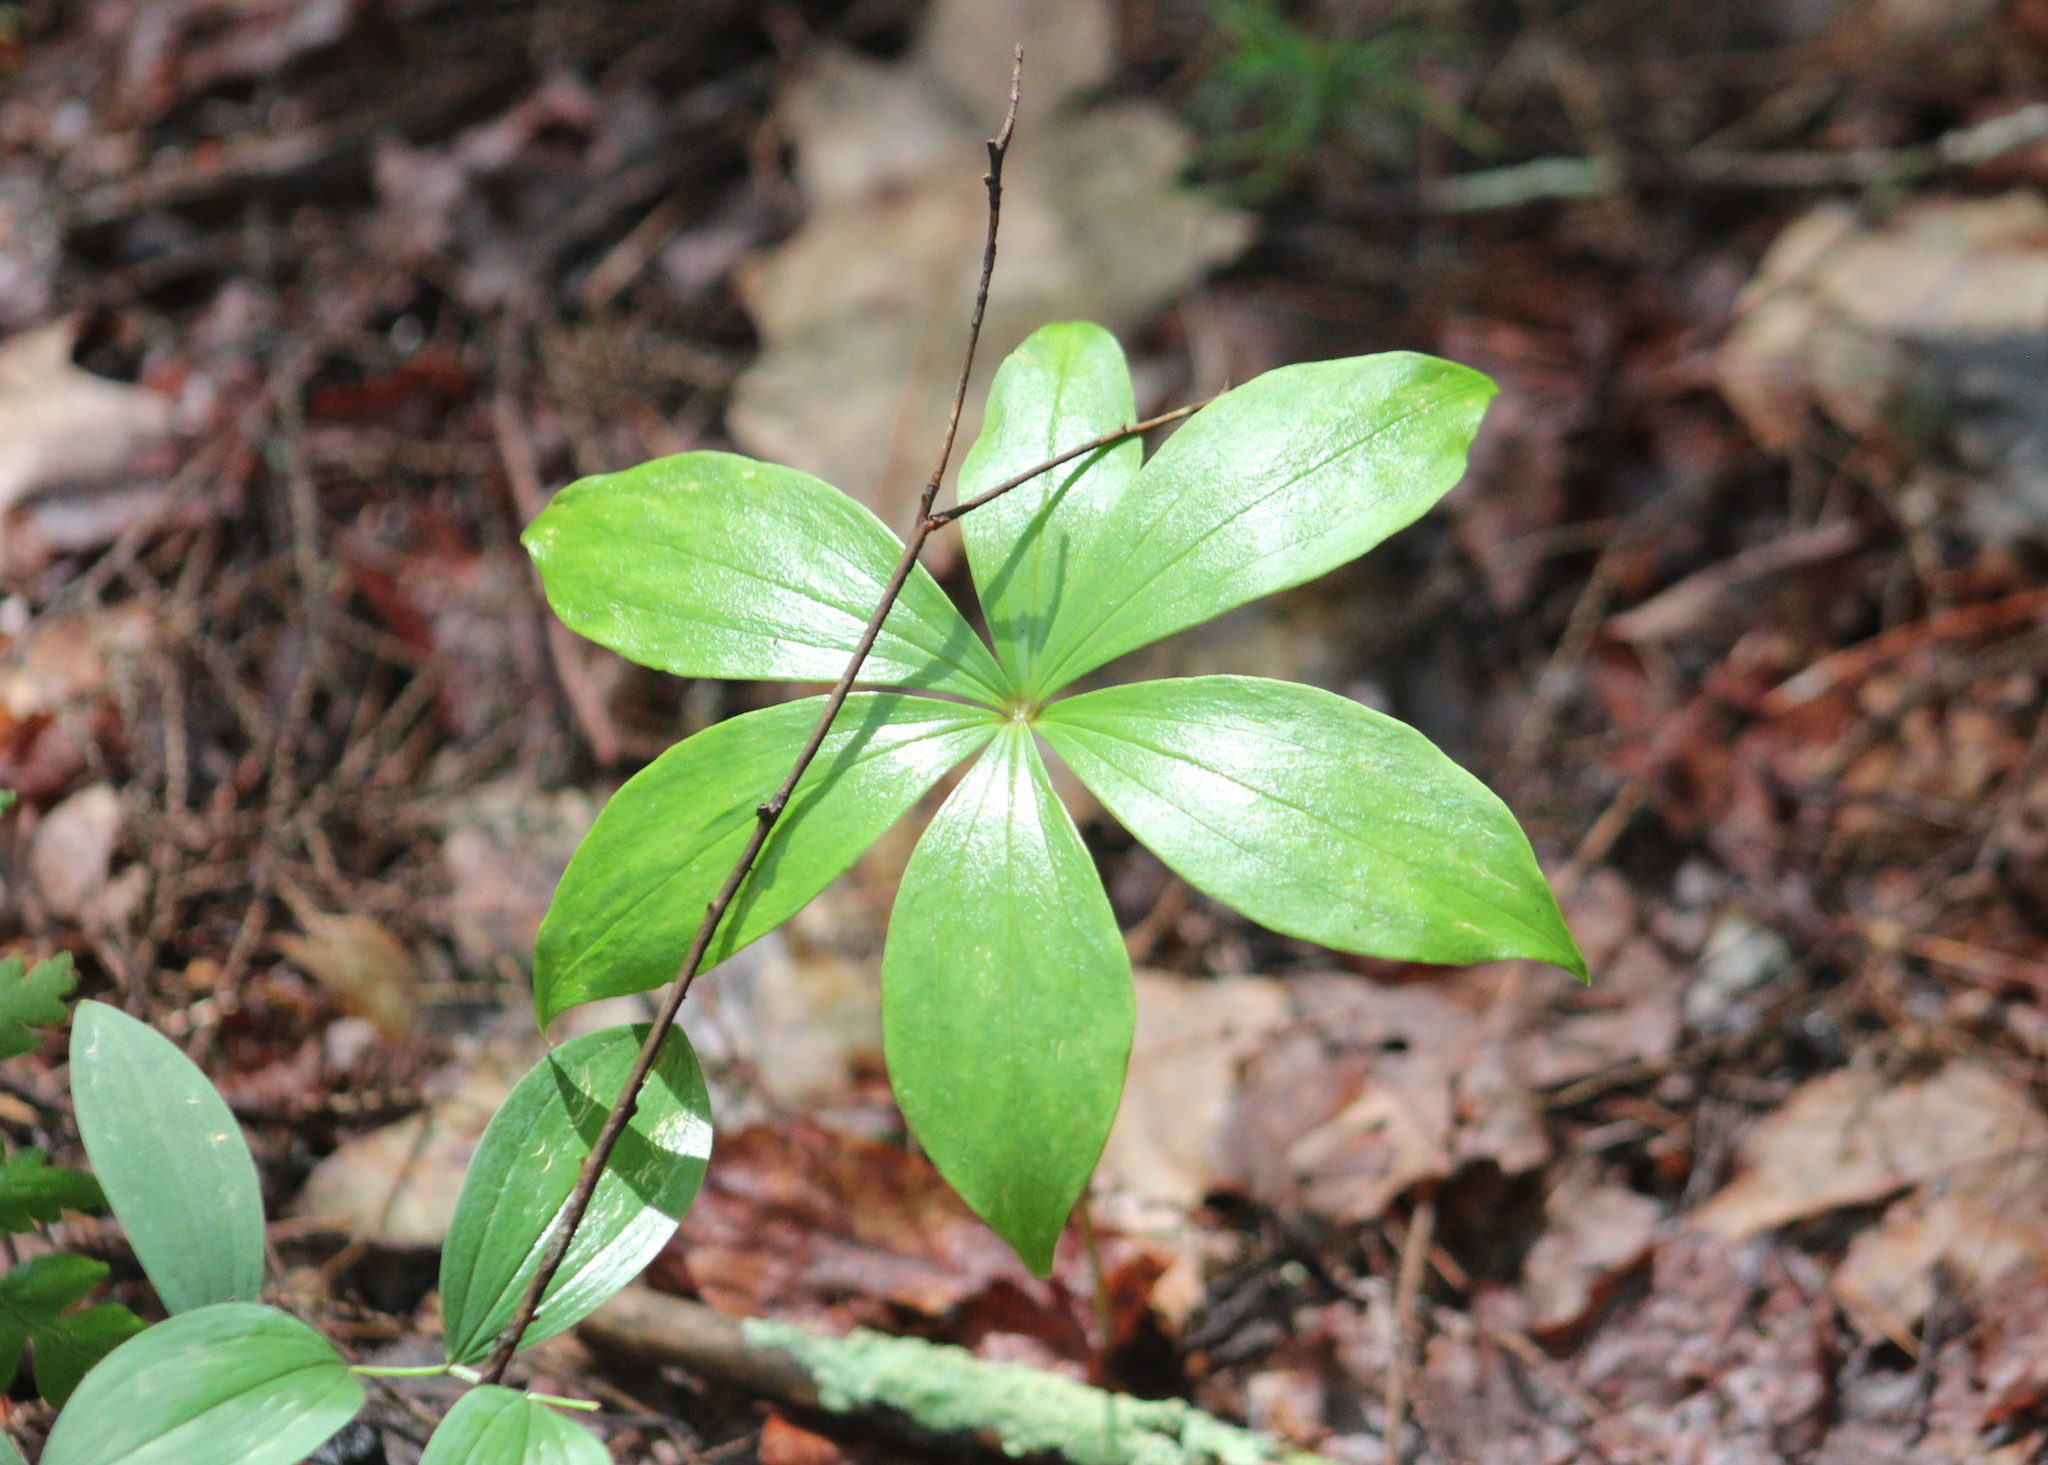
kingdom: Plantae
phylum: Tracheophyta
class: Liliopsida
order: Liliales
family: Liliaceae
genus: Medeola
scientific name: Medeola virginiana
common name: Indian cucumber-root
